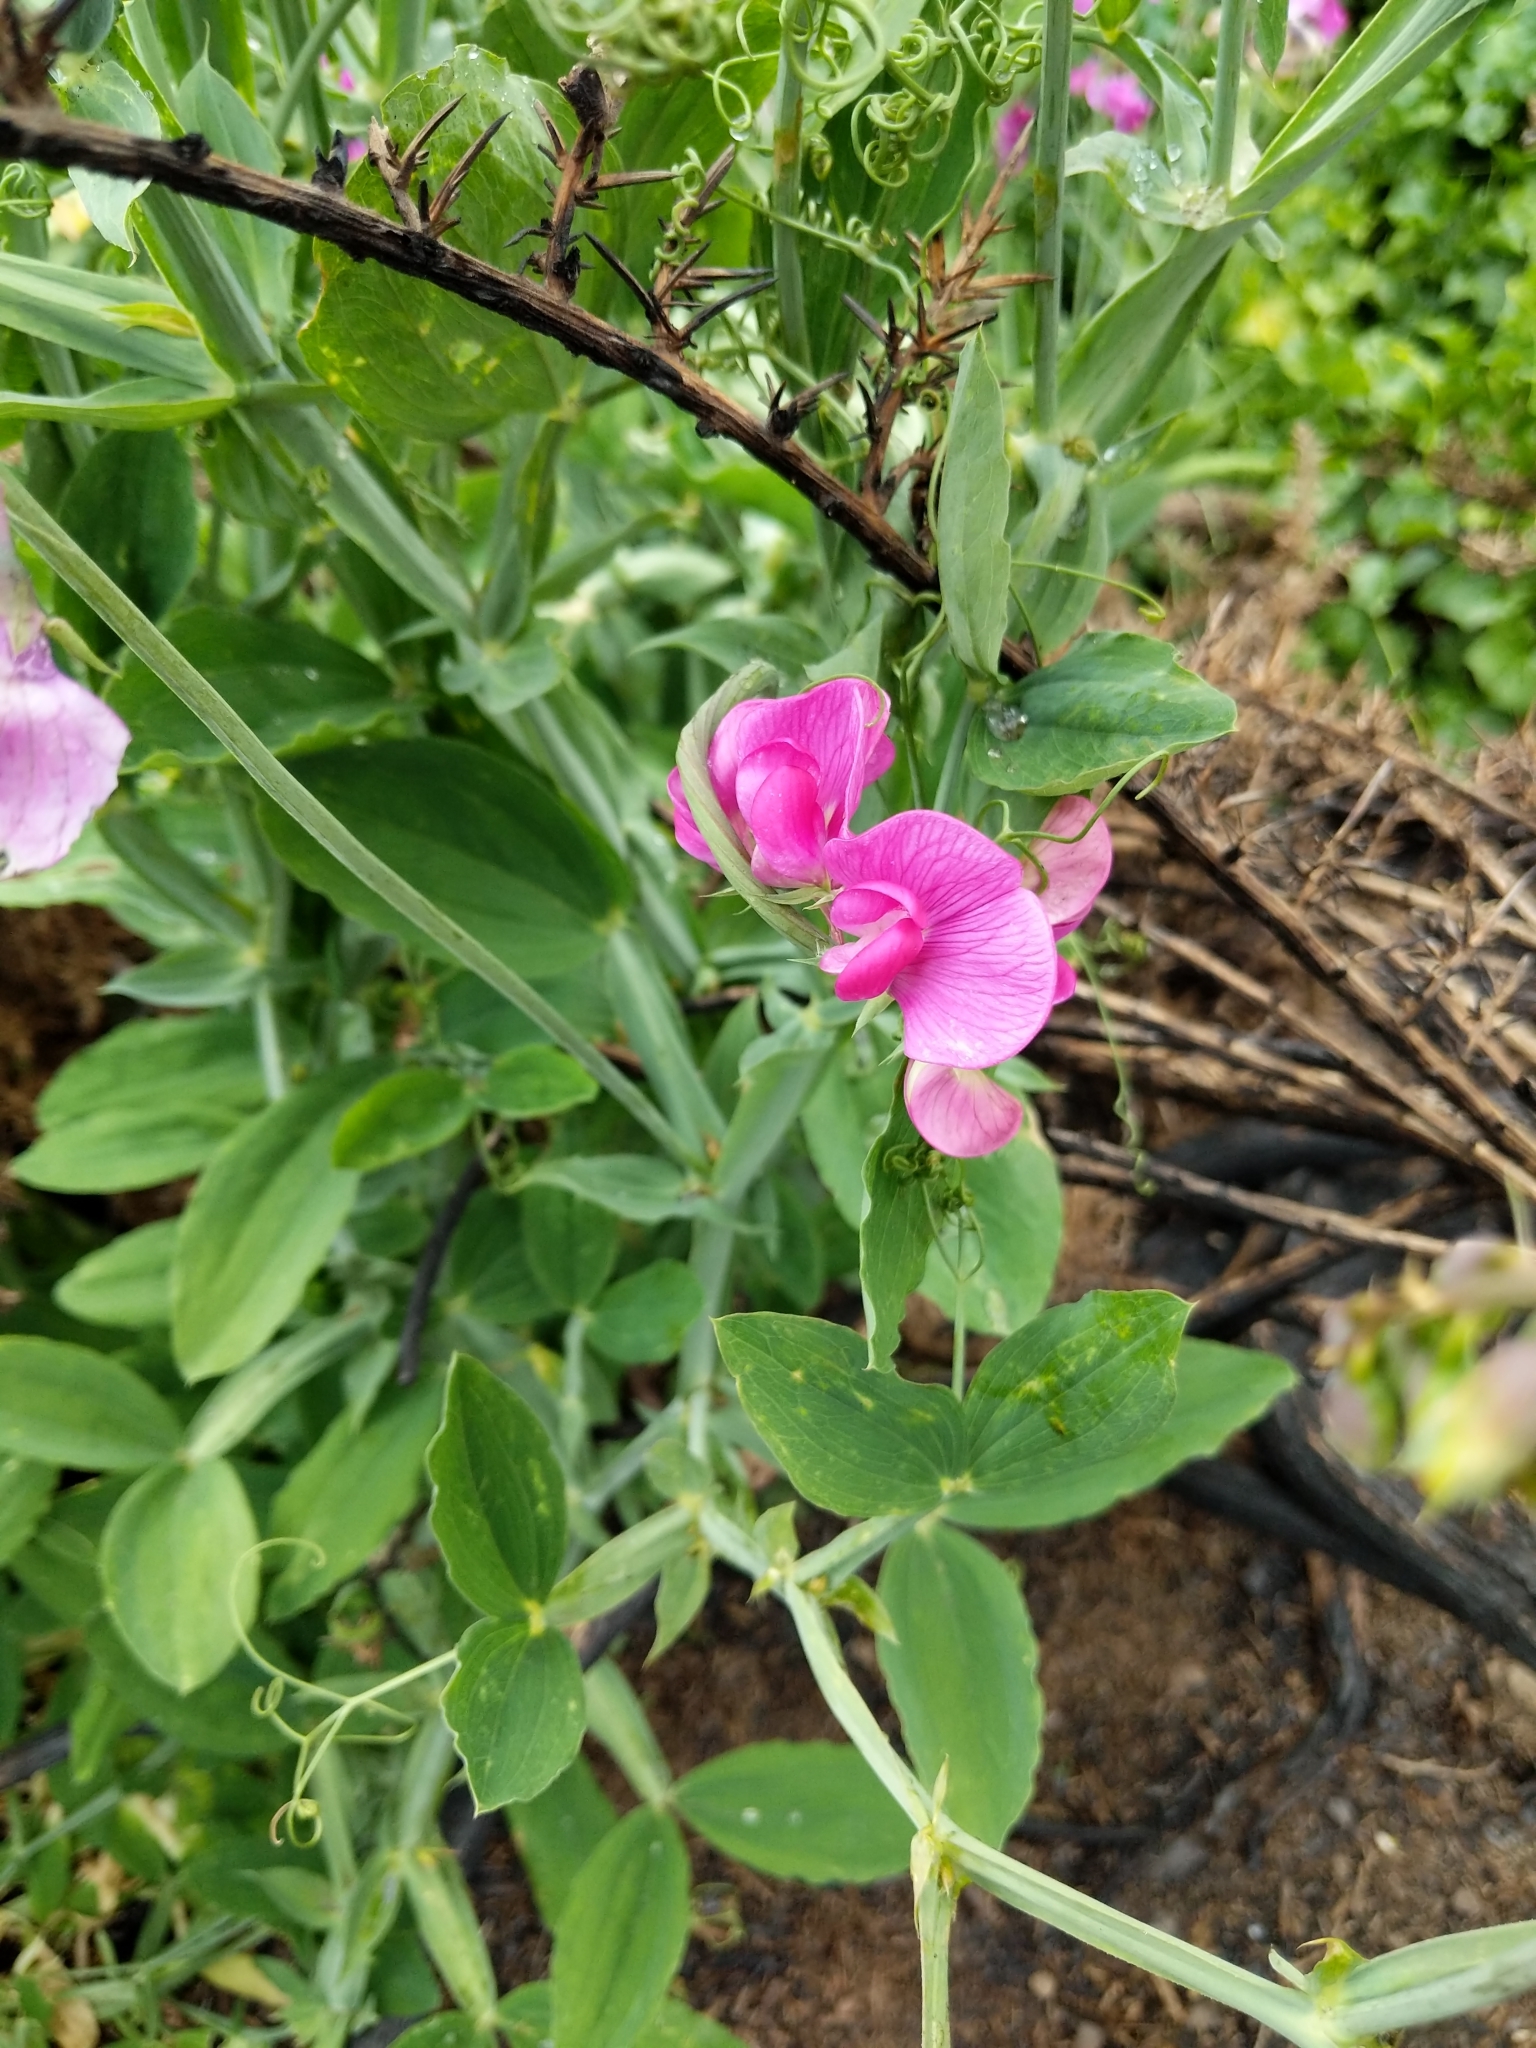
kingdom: Plantae
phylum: Tracheophyta
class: Magnoliopsida
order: Fabales
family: Fabaceae
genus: Lathyrus
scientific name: Lathyrus latifolius
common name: Perennial pea
